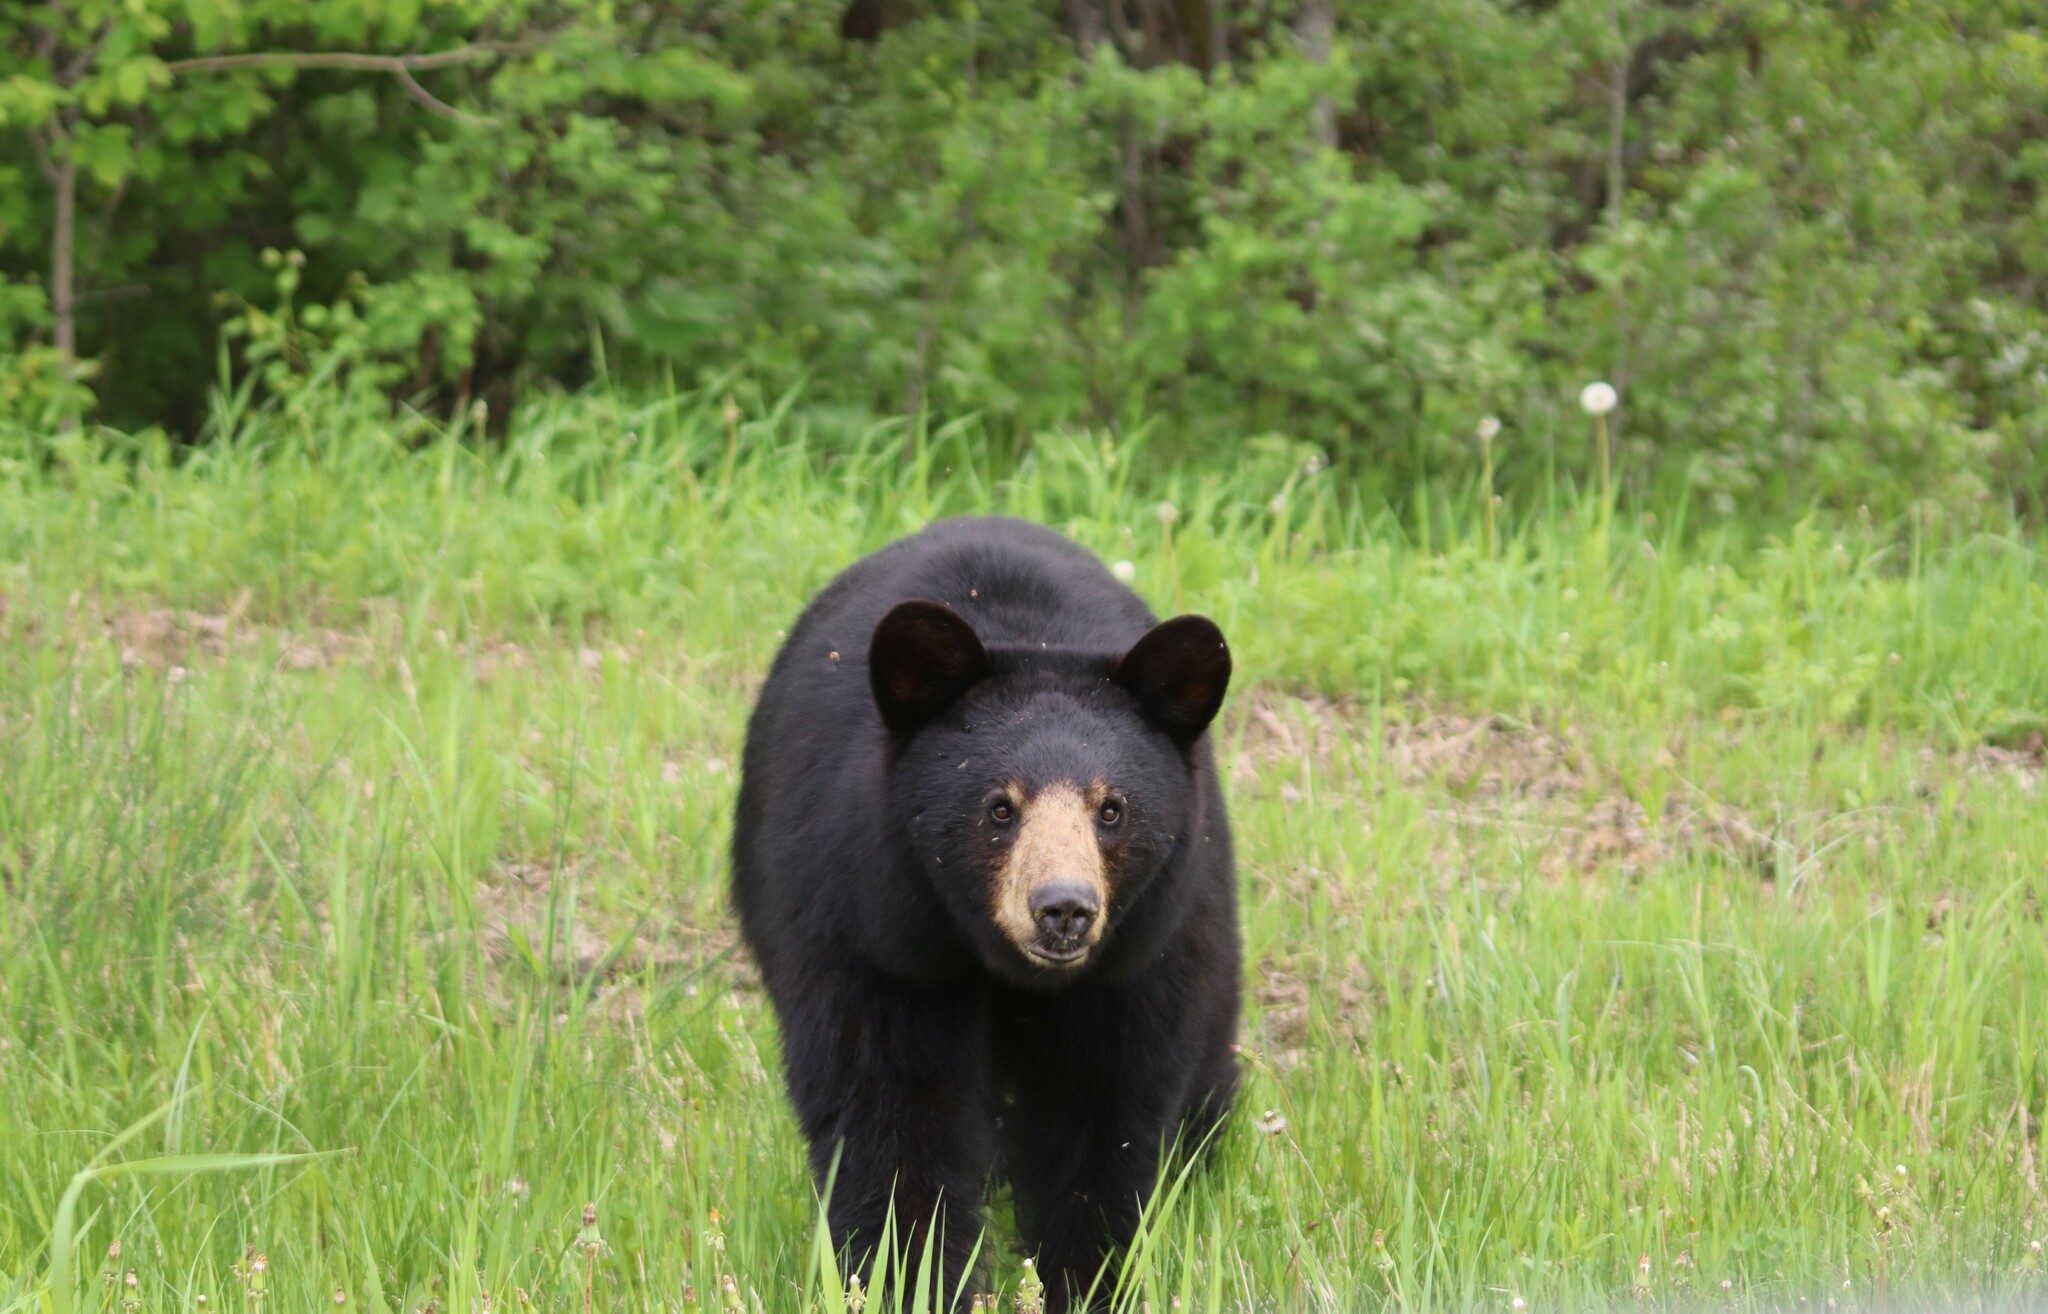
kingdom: Animalia
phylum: Chordata
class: Mammalia
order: Carnivora
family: Ursidae
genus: Ursus
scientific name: Ursus americanus
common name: American black bear
